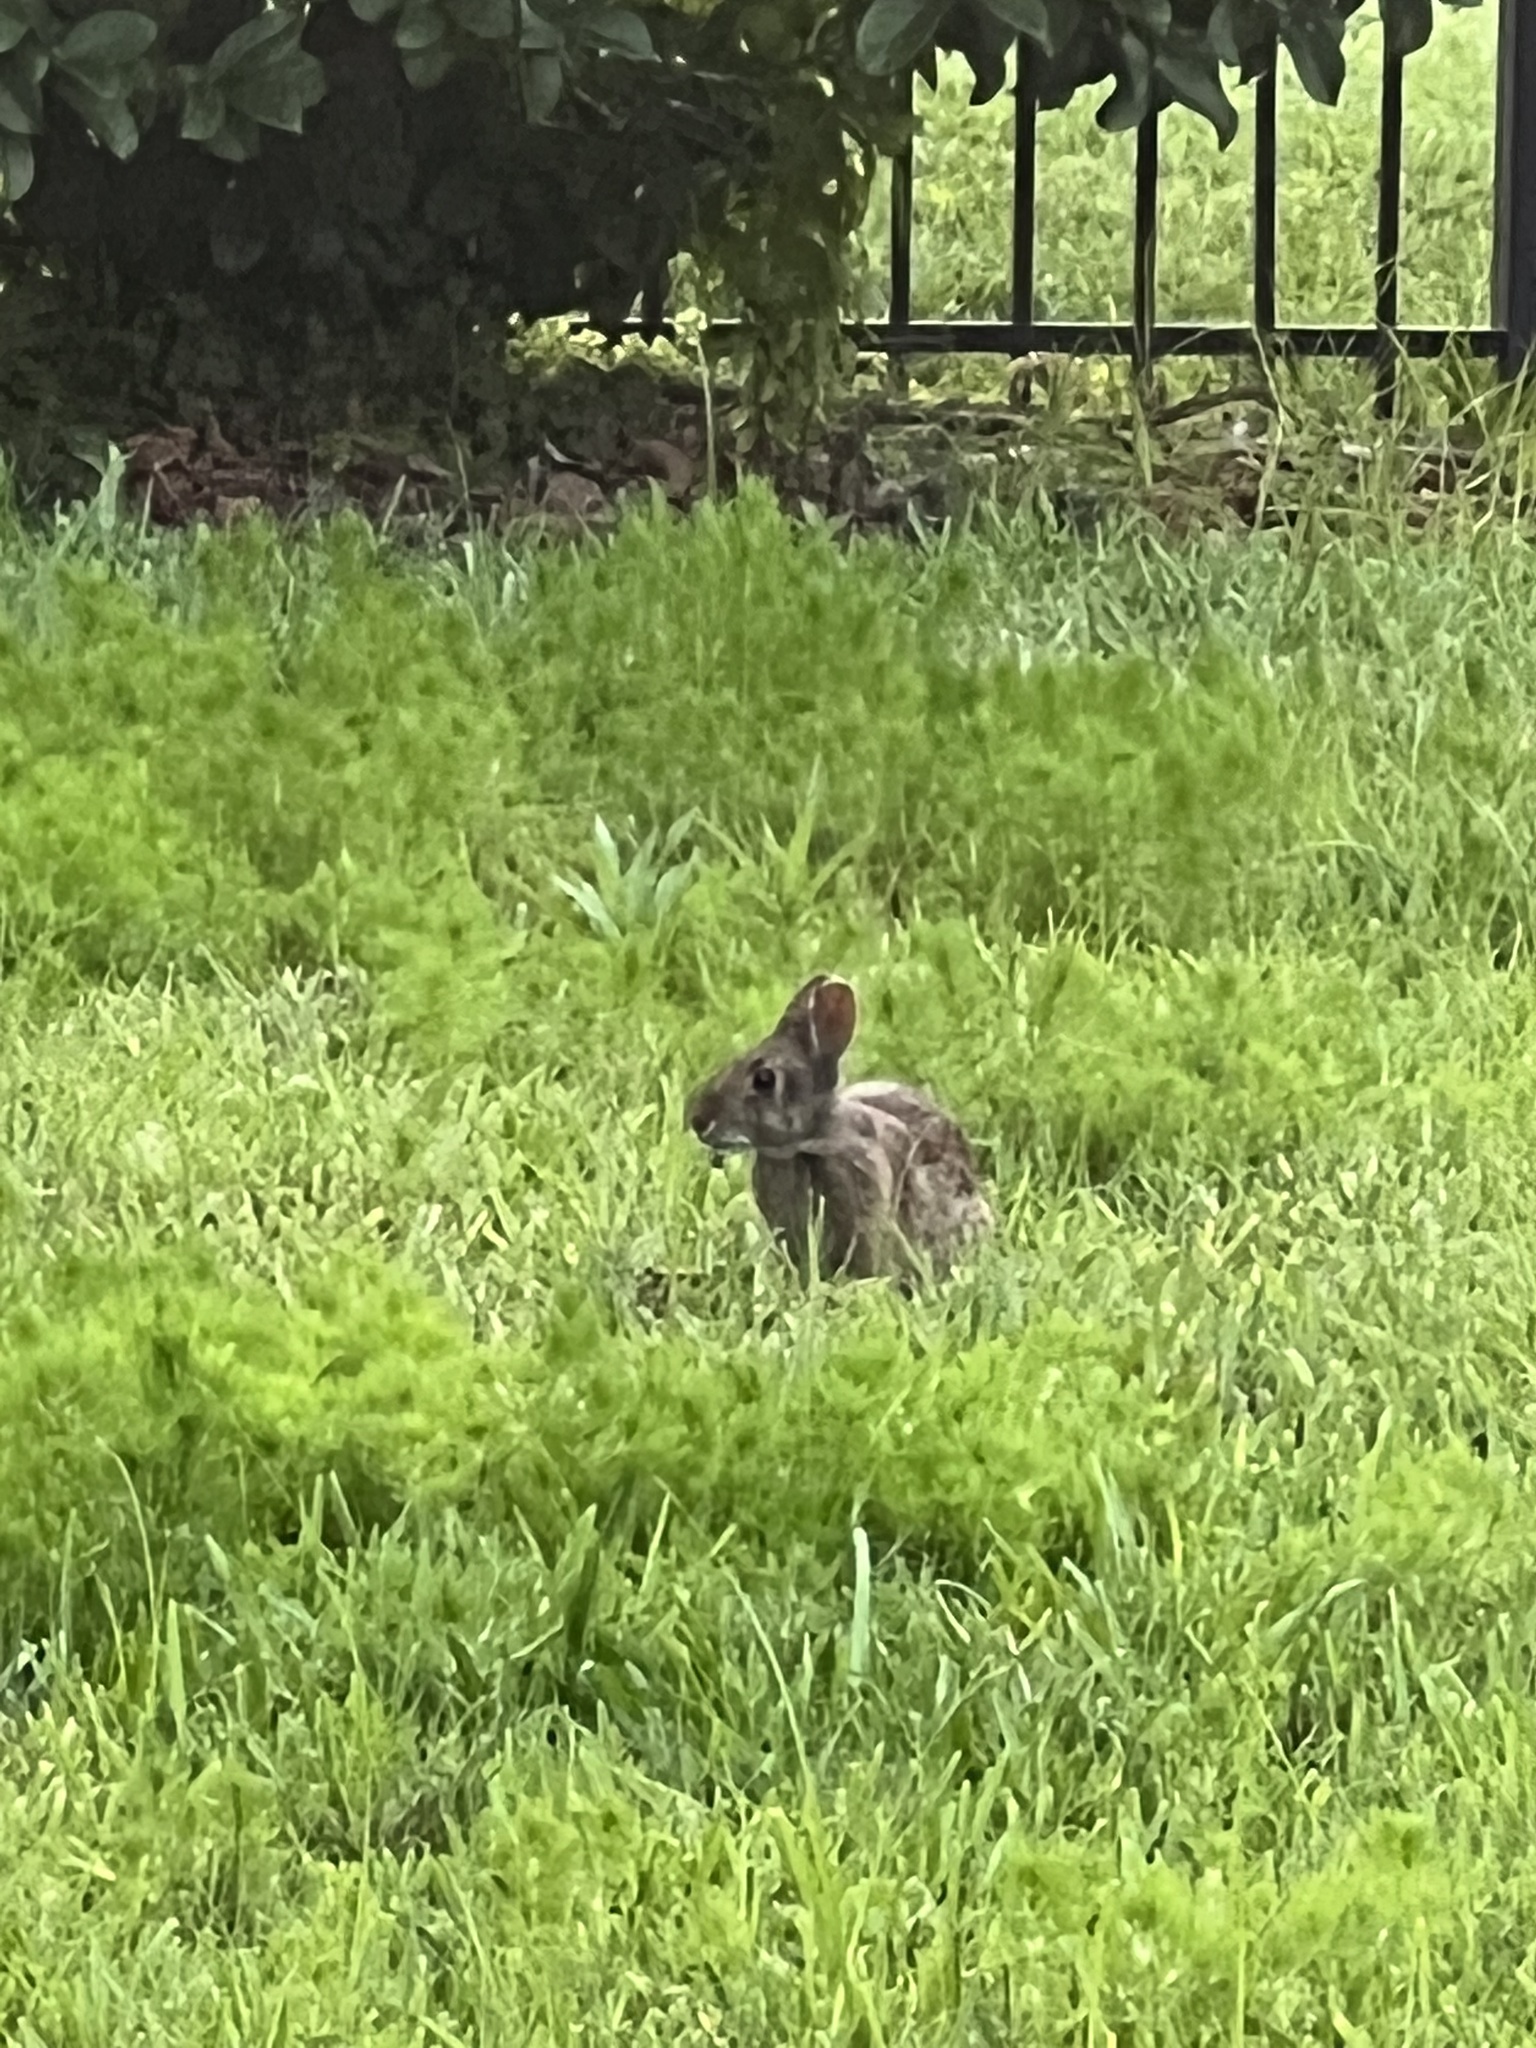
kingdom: Animalia
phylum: Chordata
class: Mammalia
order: Lagomorpha
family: Leporidae
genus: Sylvilagus
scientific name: Sylvilagus palustris
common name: Marsh rabbit
